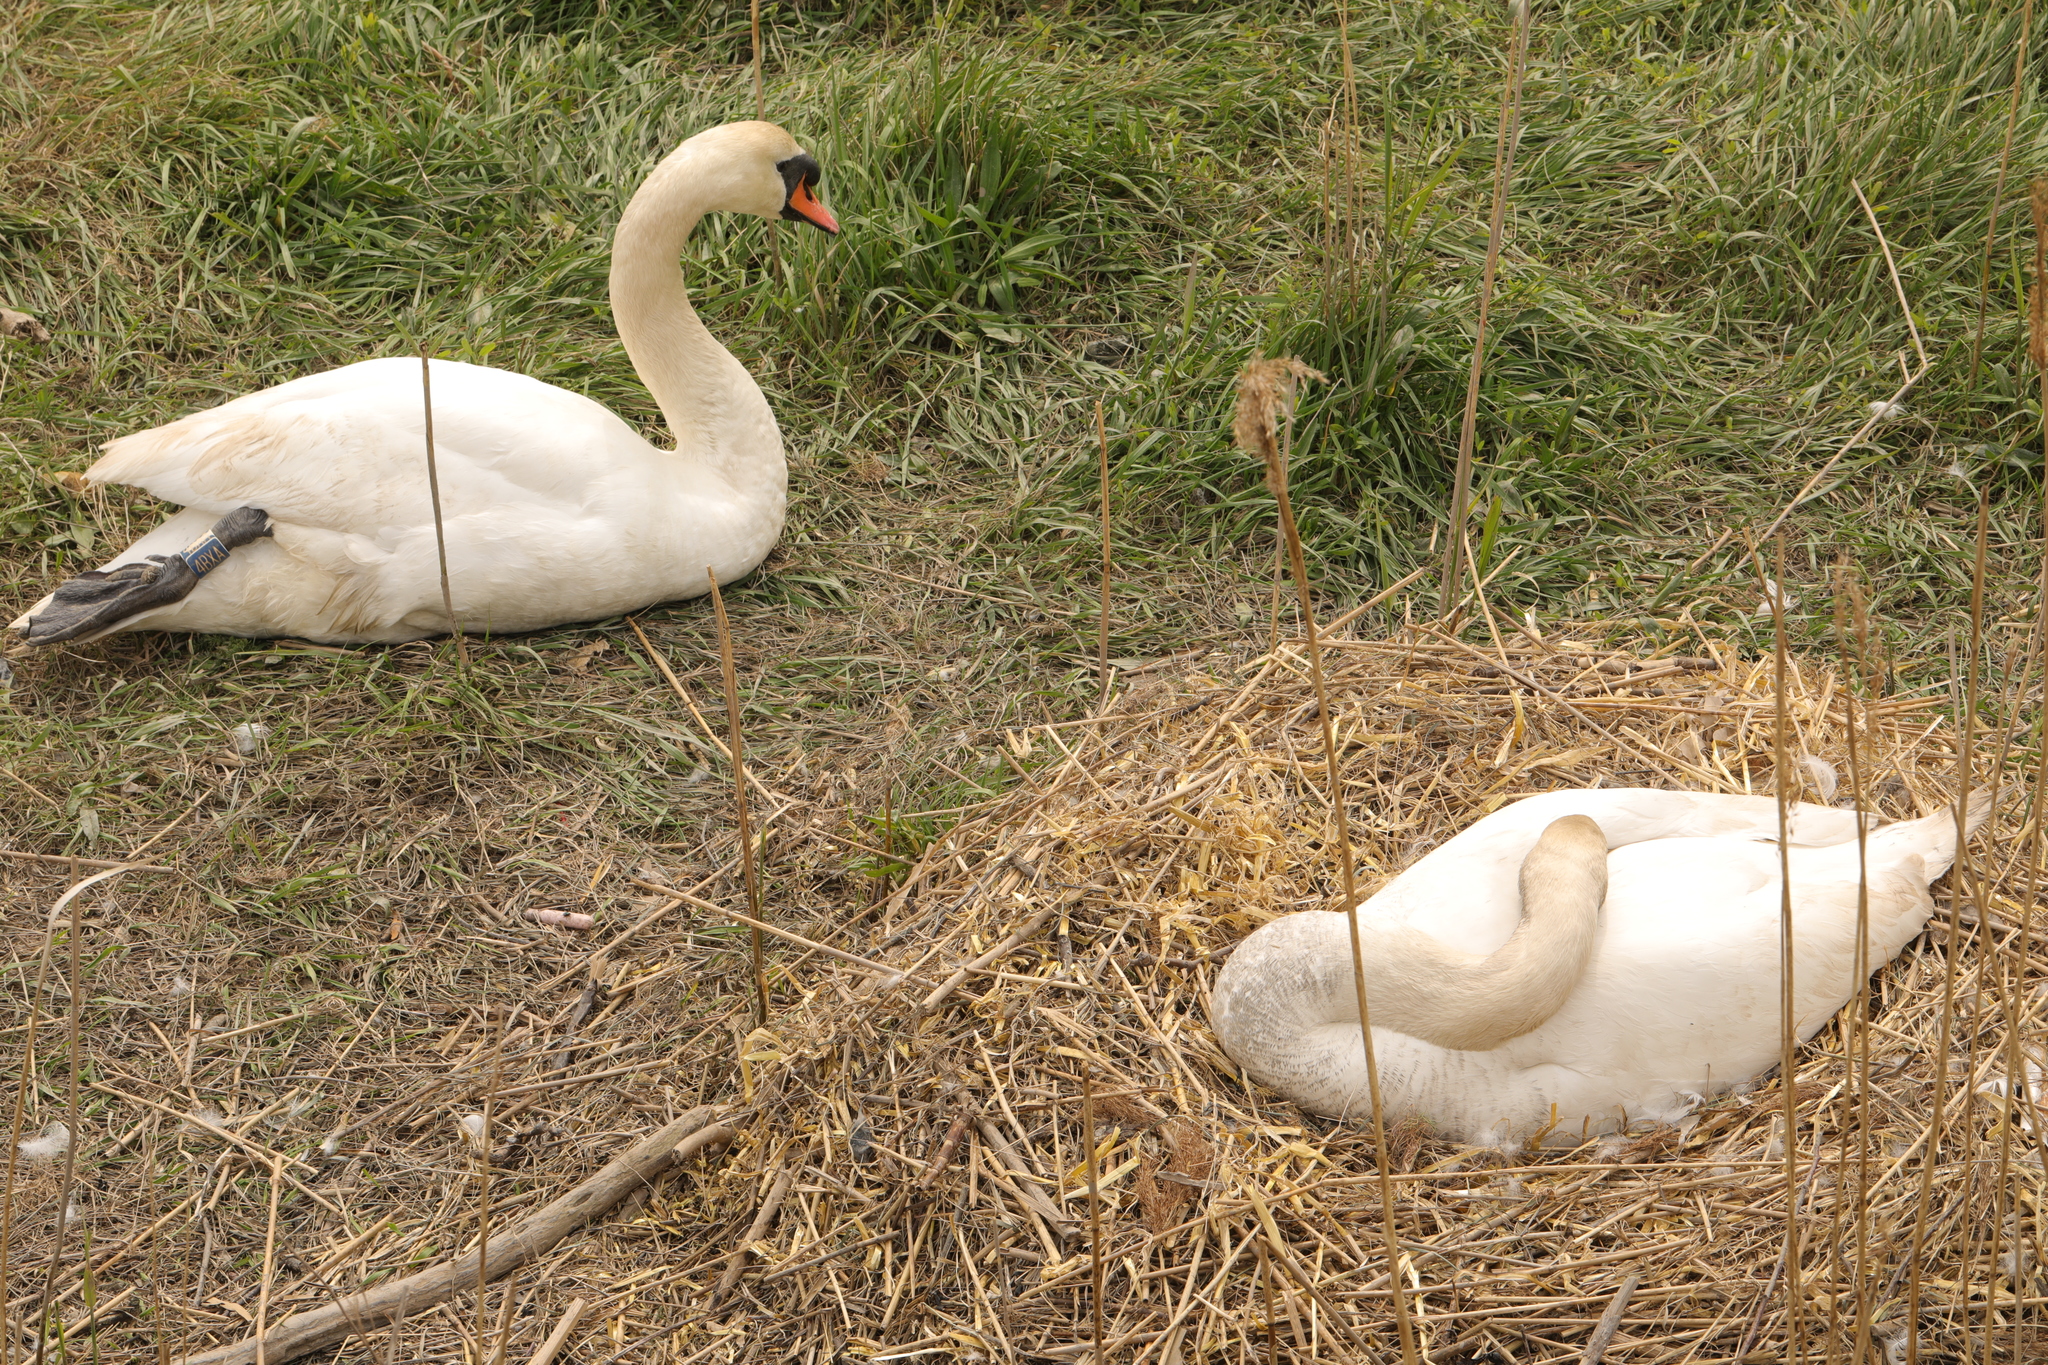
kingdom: Animalia
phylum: Chordata
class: Aves
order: Anseriformes
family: Anatidae
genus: Cygnus
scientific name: Cygnus olor
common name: Mute swan
